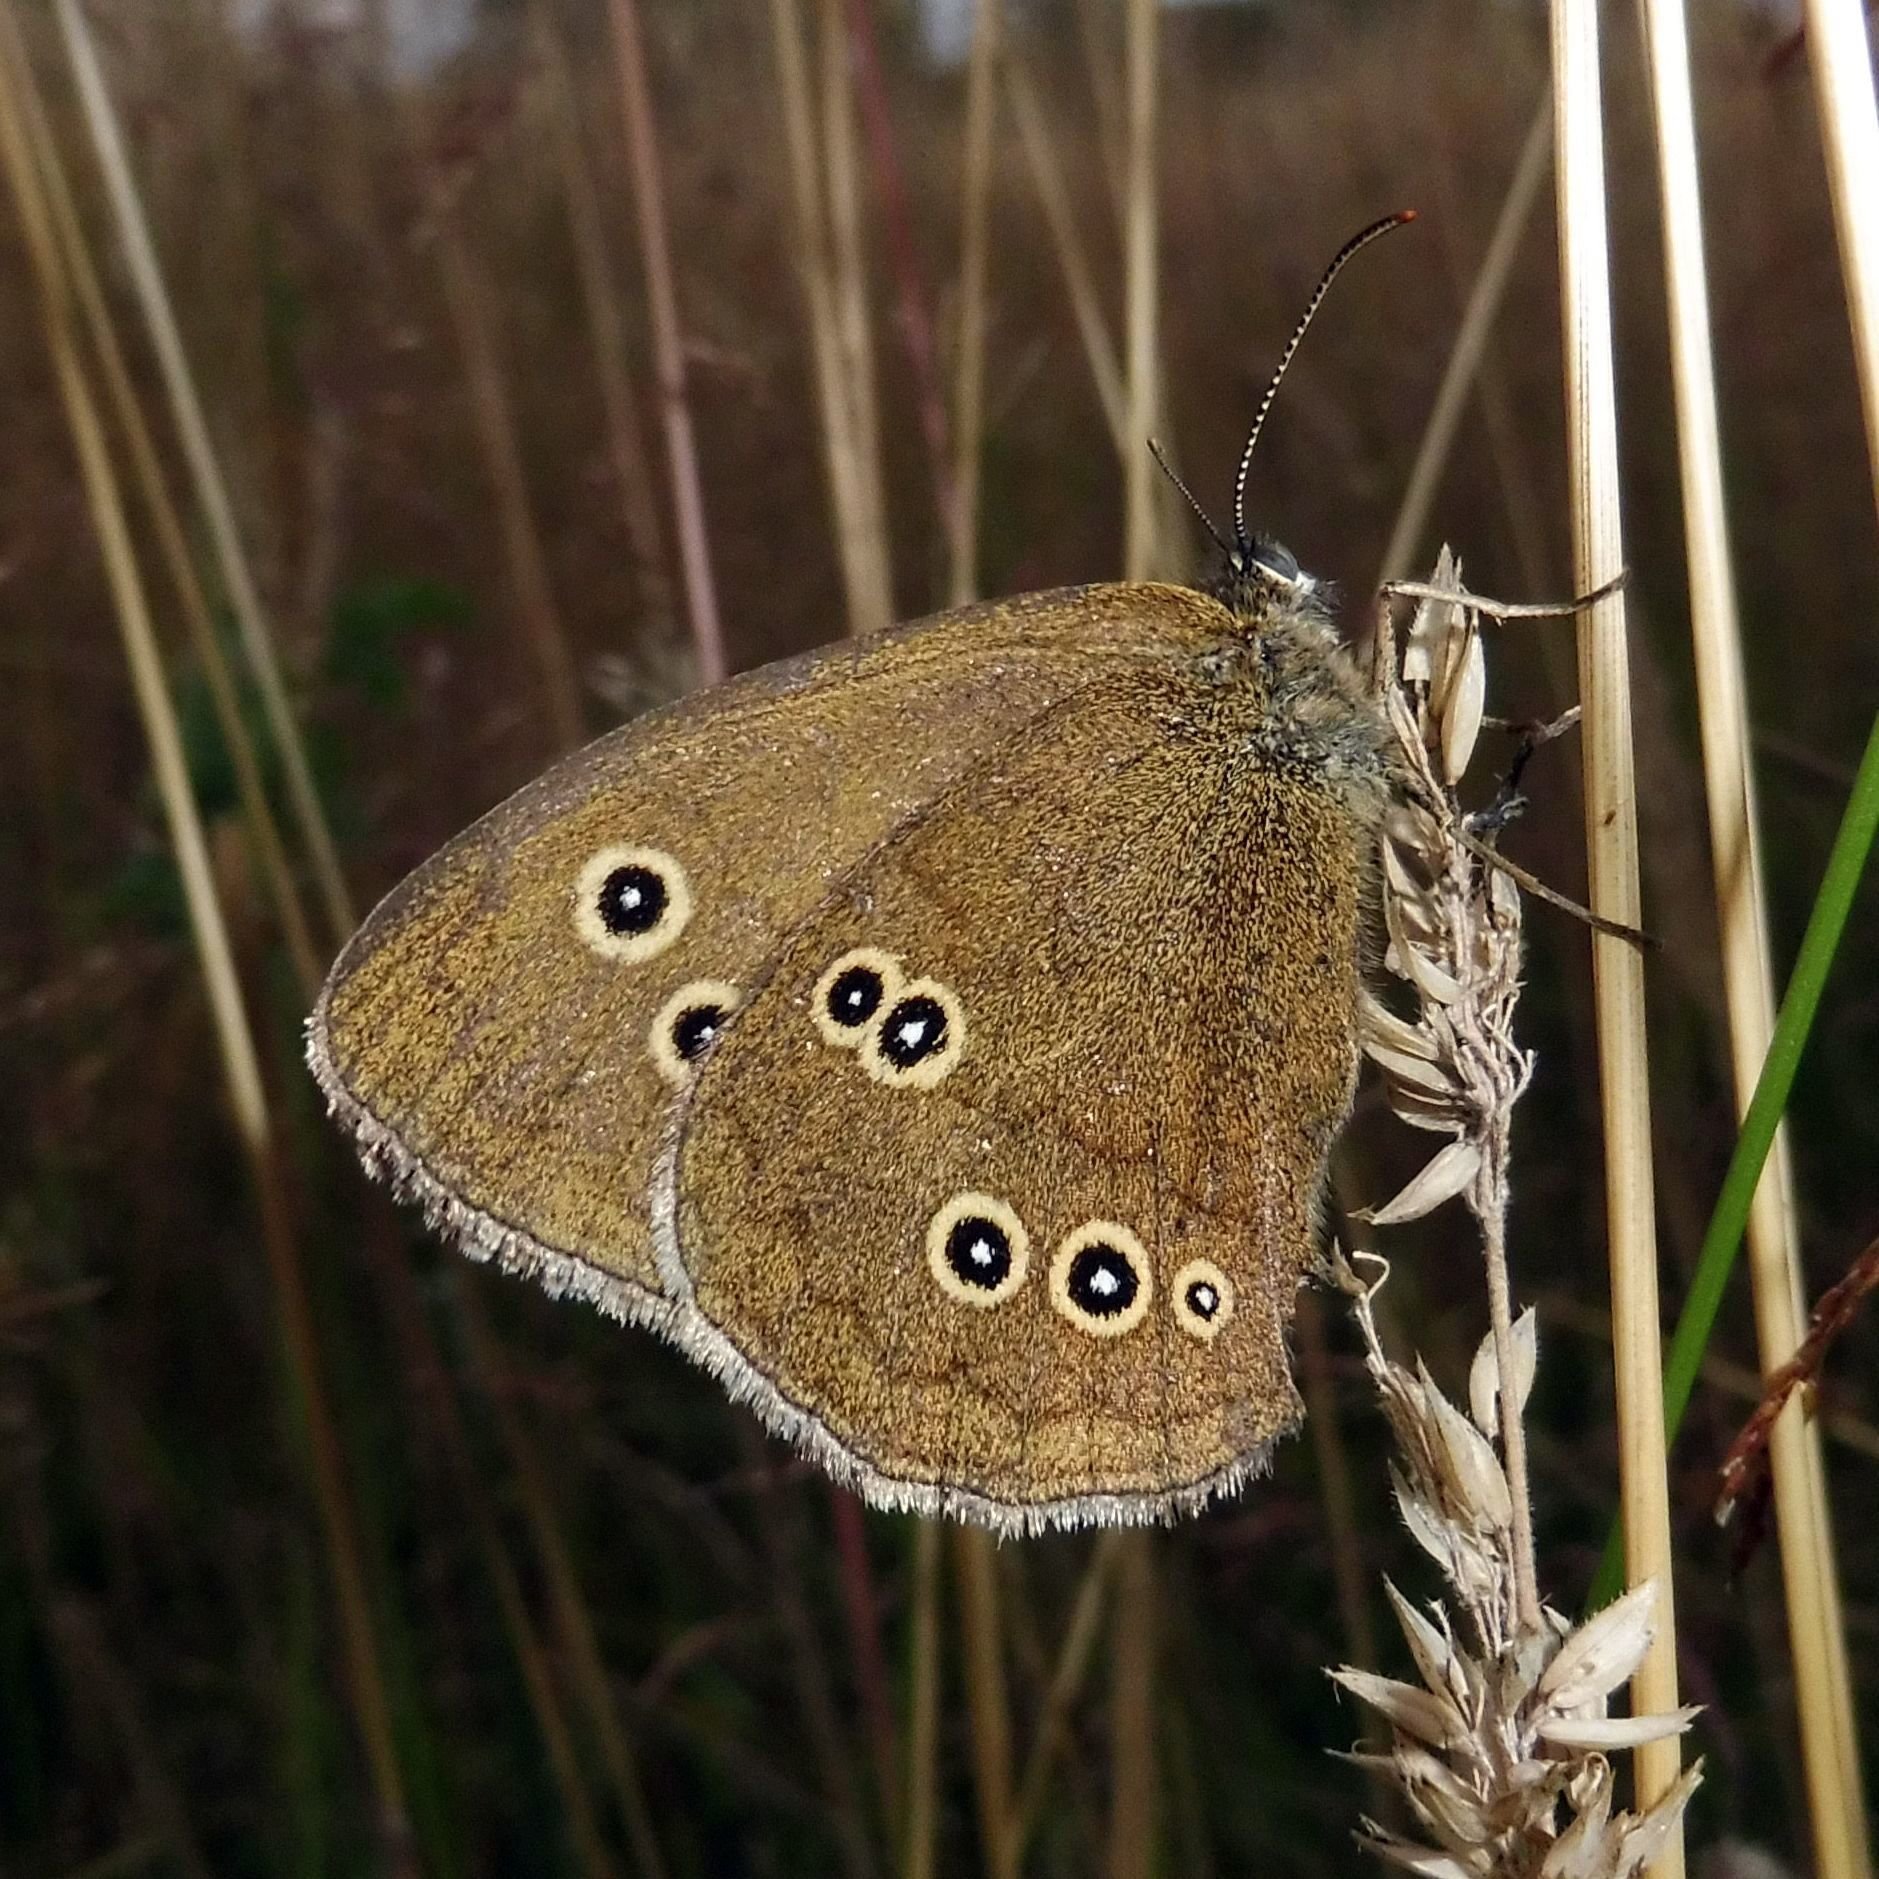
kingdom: Animalia
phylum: Arthropoda
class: Insecta
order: Lepidoptera
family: Nymphalidae
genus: Aphantopus
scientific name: Aphantopus hyperantus
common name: Ringlet
